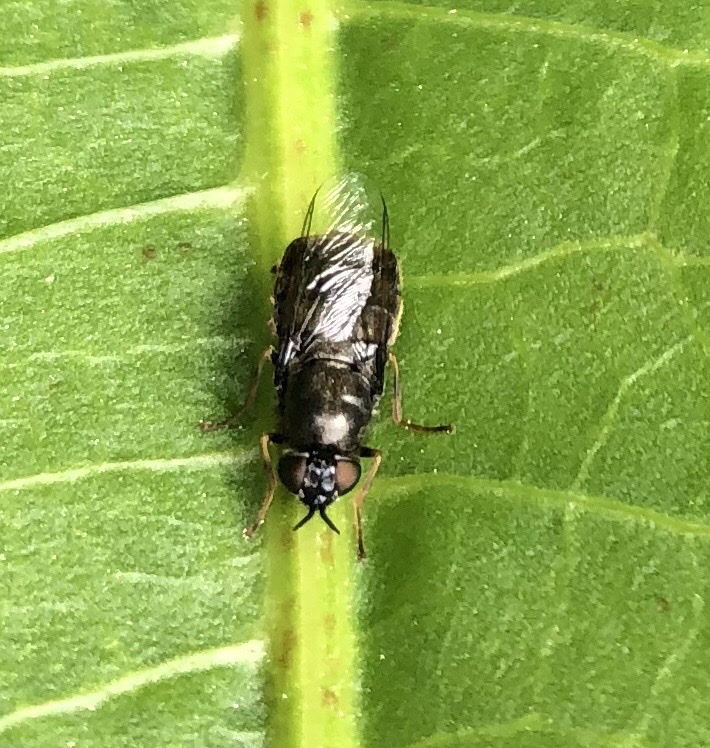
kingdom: Animalia
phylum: Arthropoda
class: Insecta
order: Diptera
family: Stratiomyidae
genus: Odontomyia
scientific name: Odontomyia tigrina
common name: Black colonel
